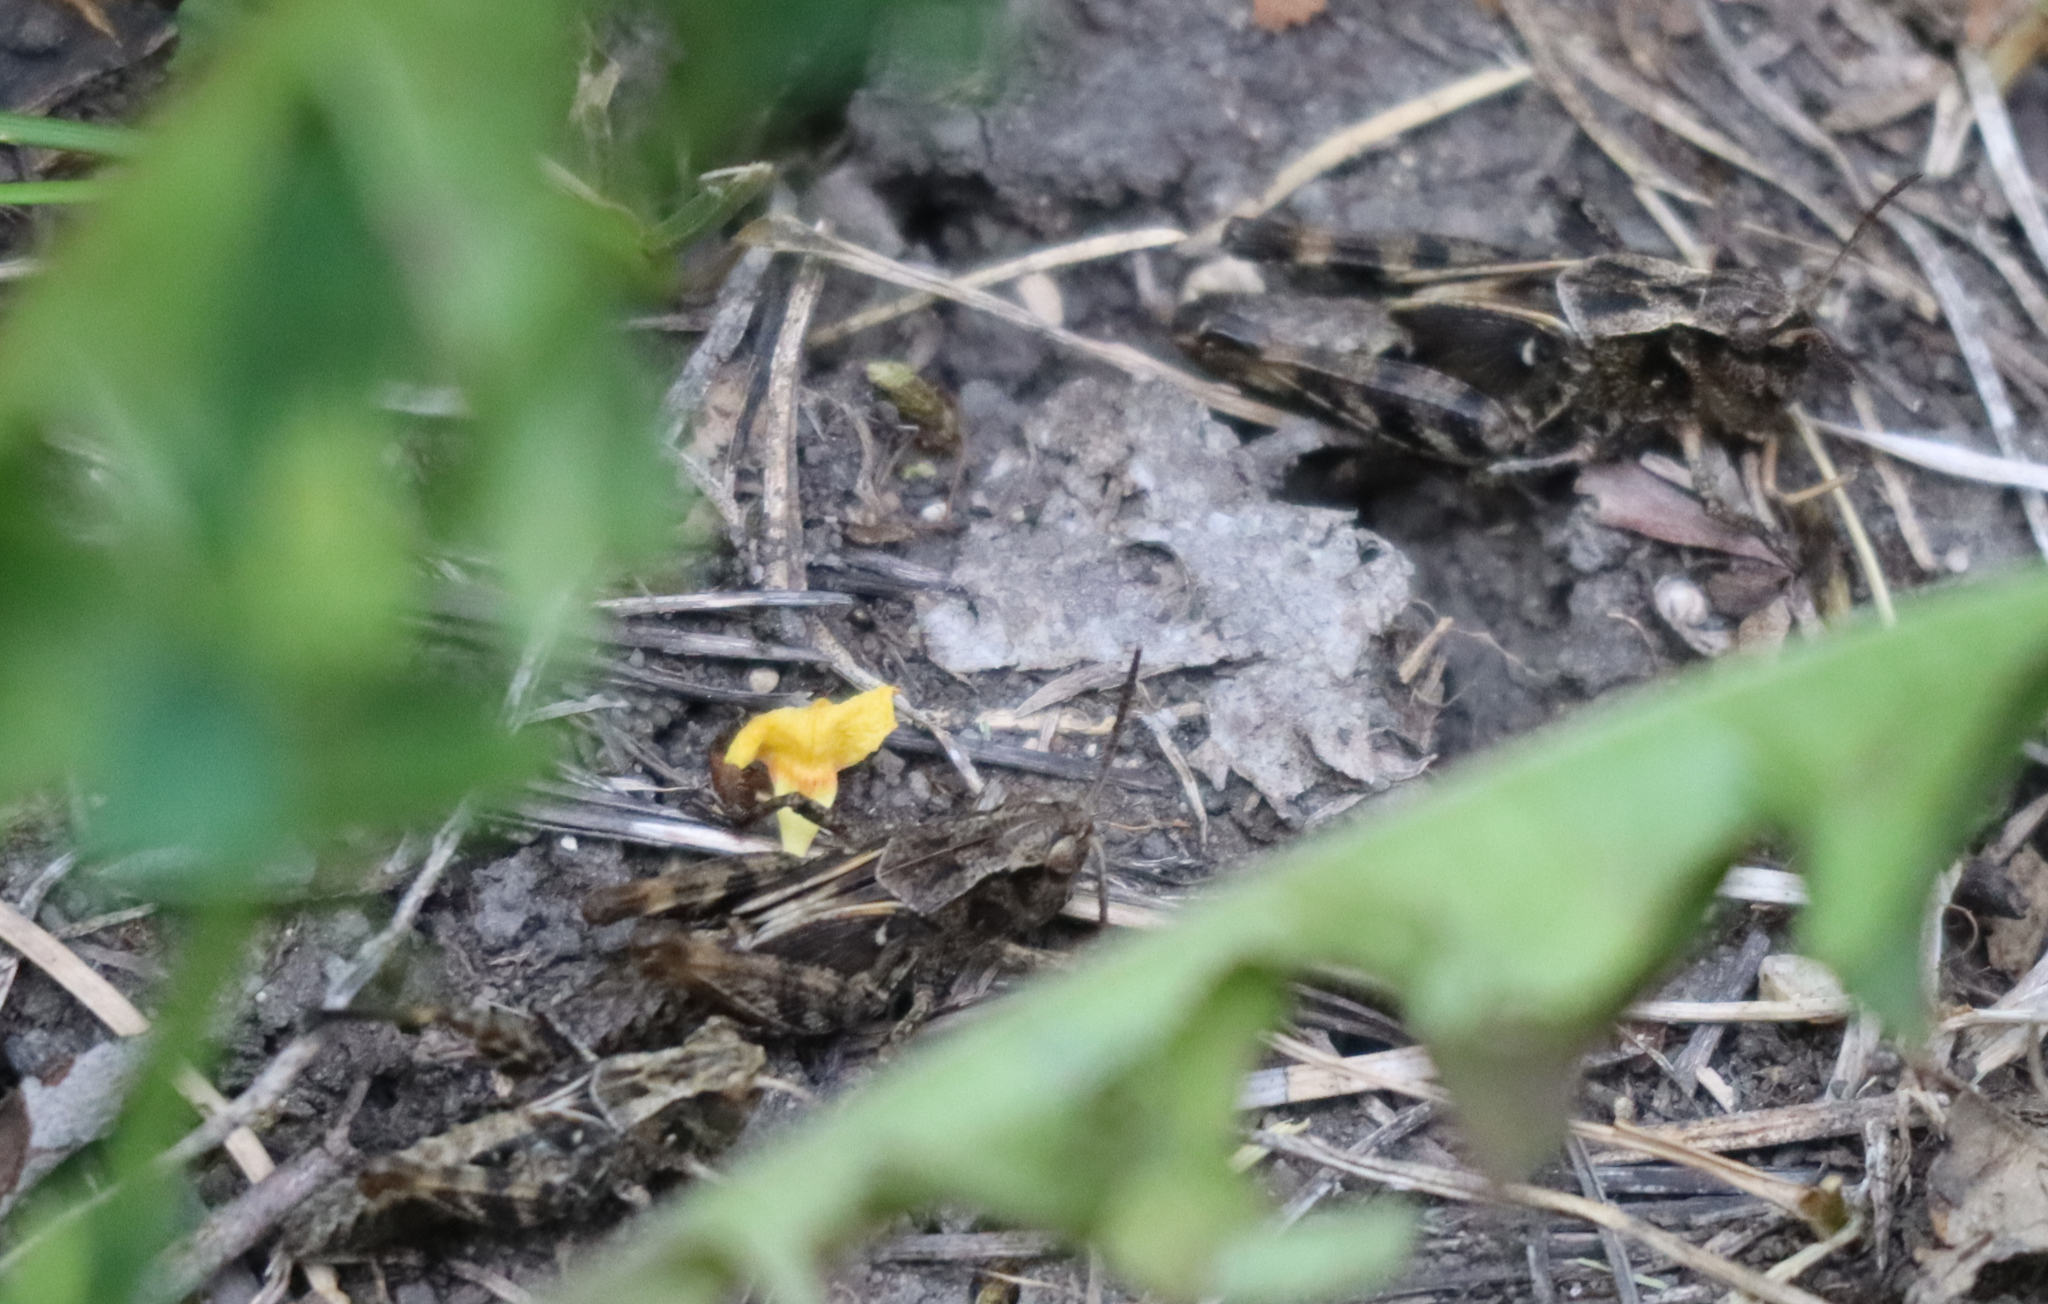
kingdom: Animalia
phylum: Arthropoda
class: Insecta
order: Orthoptera
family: Acrididae
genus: Camnula
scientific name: Camnula pellucida
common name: Clear-winged grasshopper
